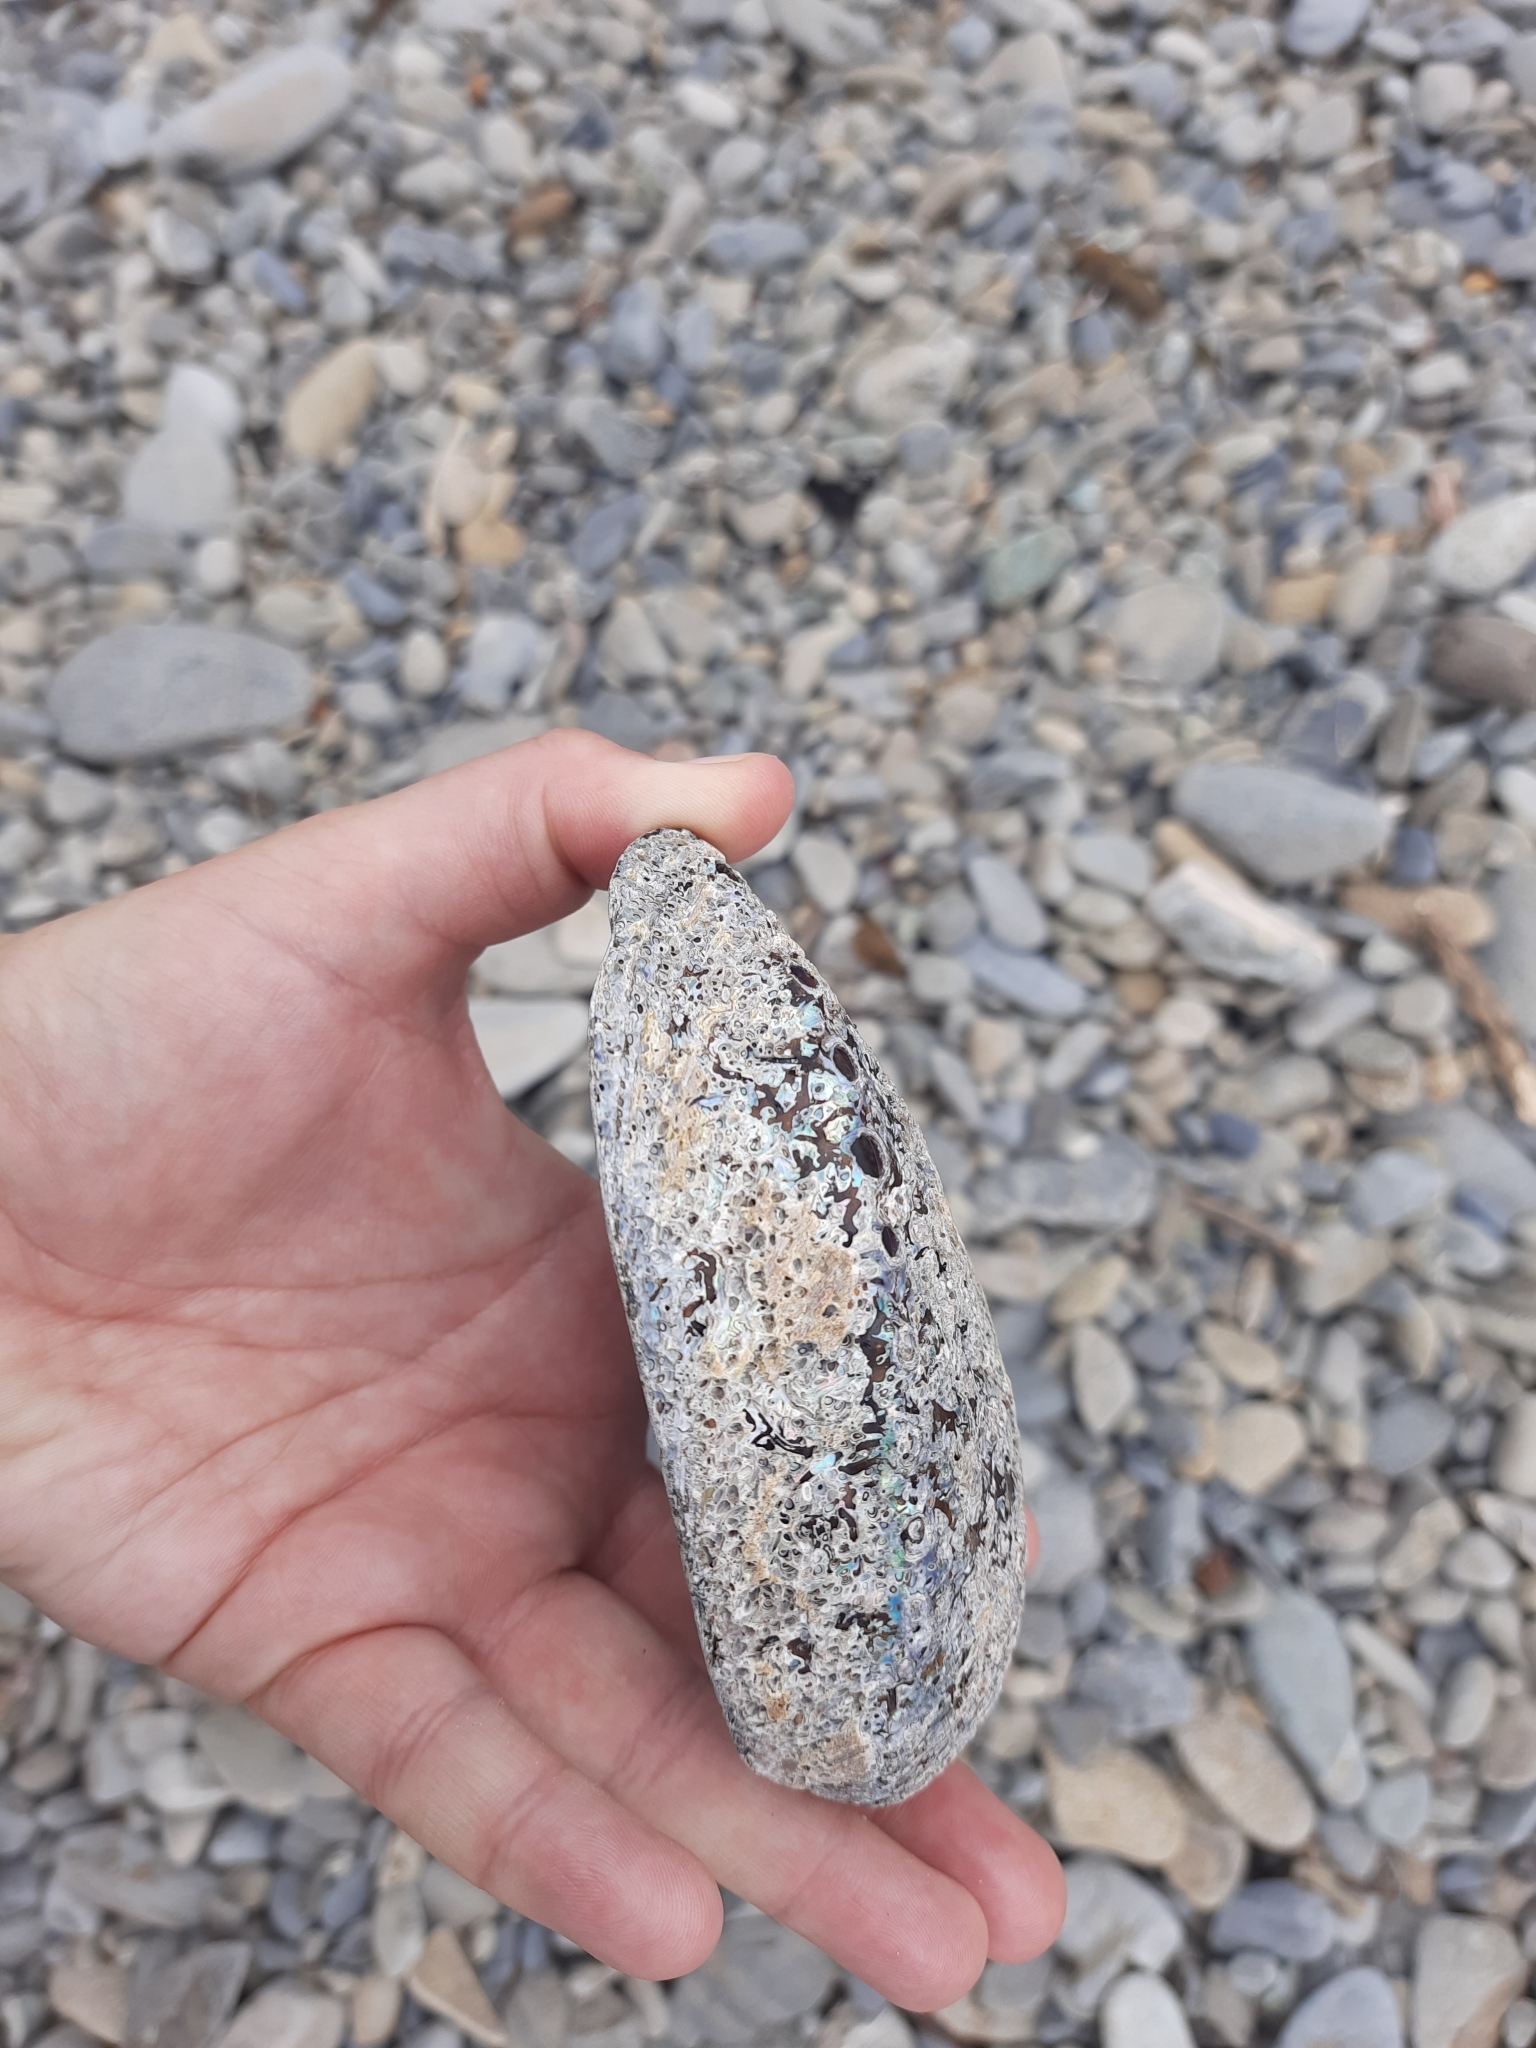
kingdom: Animalia
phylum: Mollusca
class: Gastropoda
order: Lepetellida
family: Haliotidae
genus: Haliotis
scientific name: Haliotis iris
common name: Abalone
